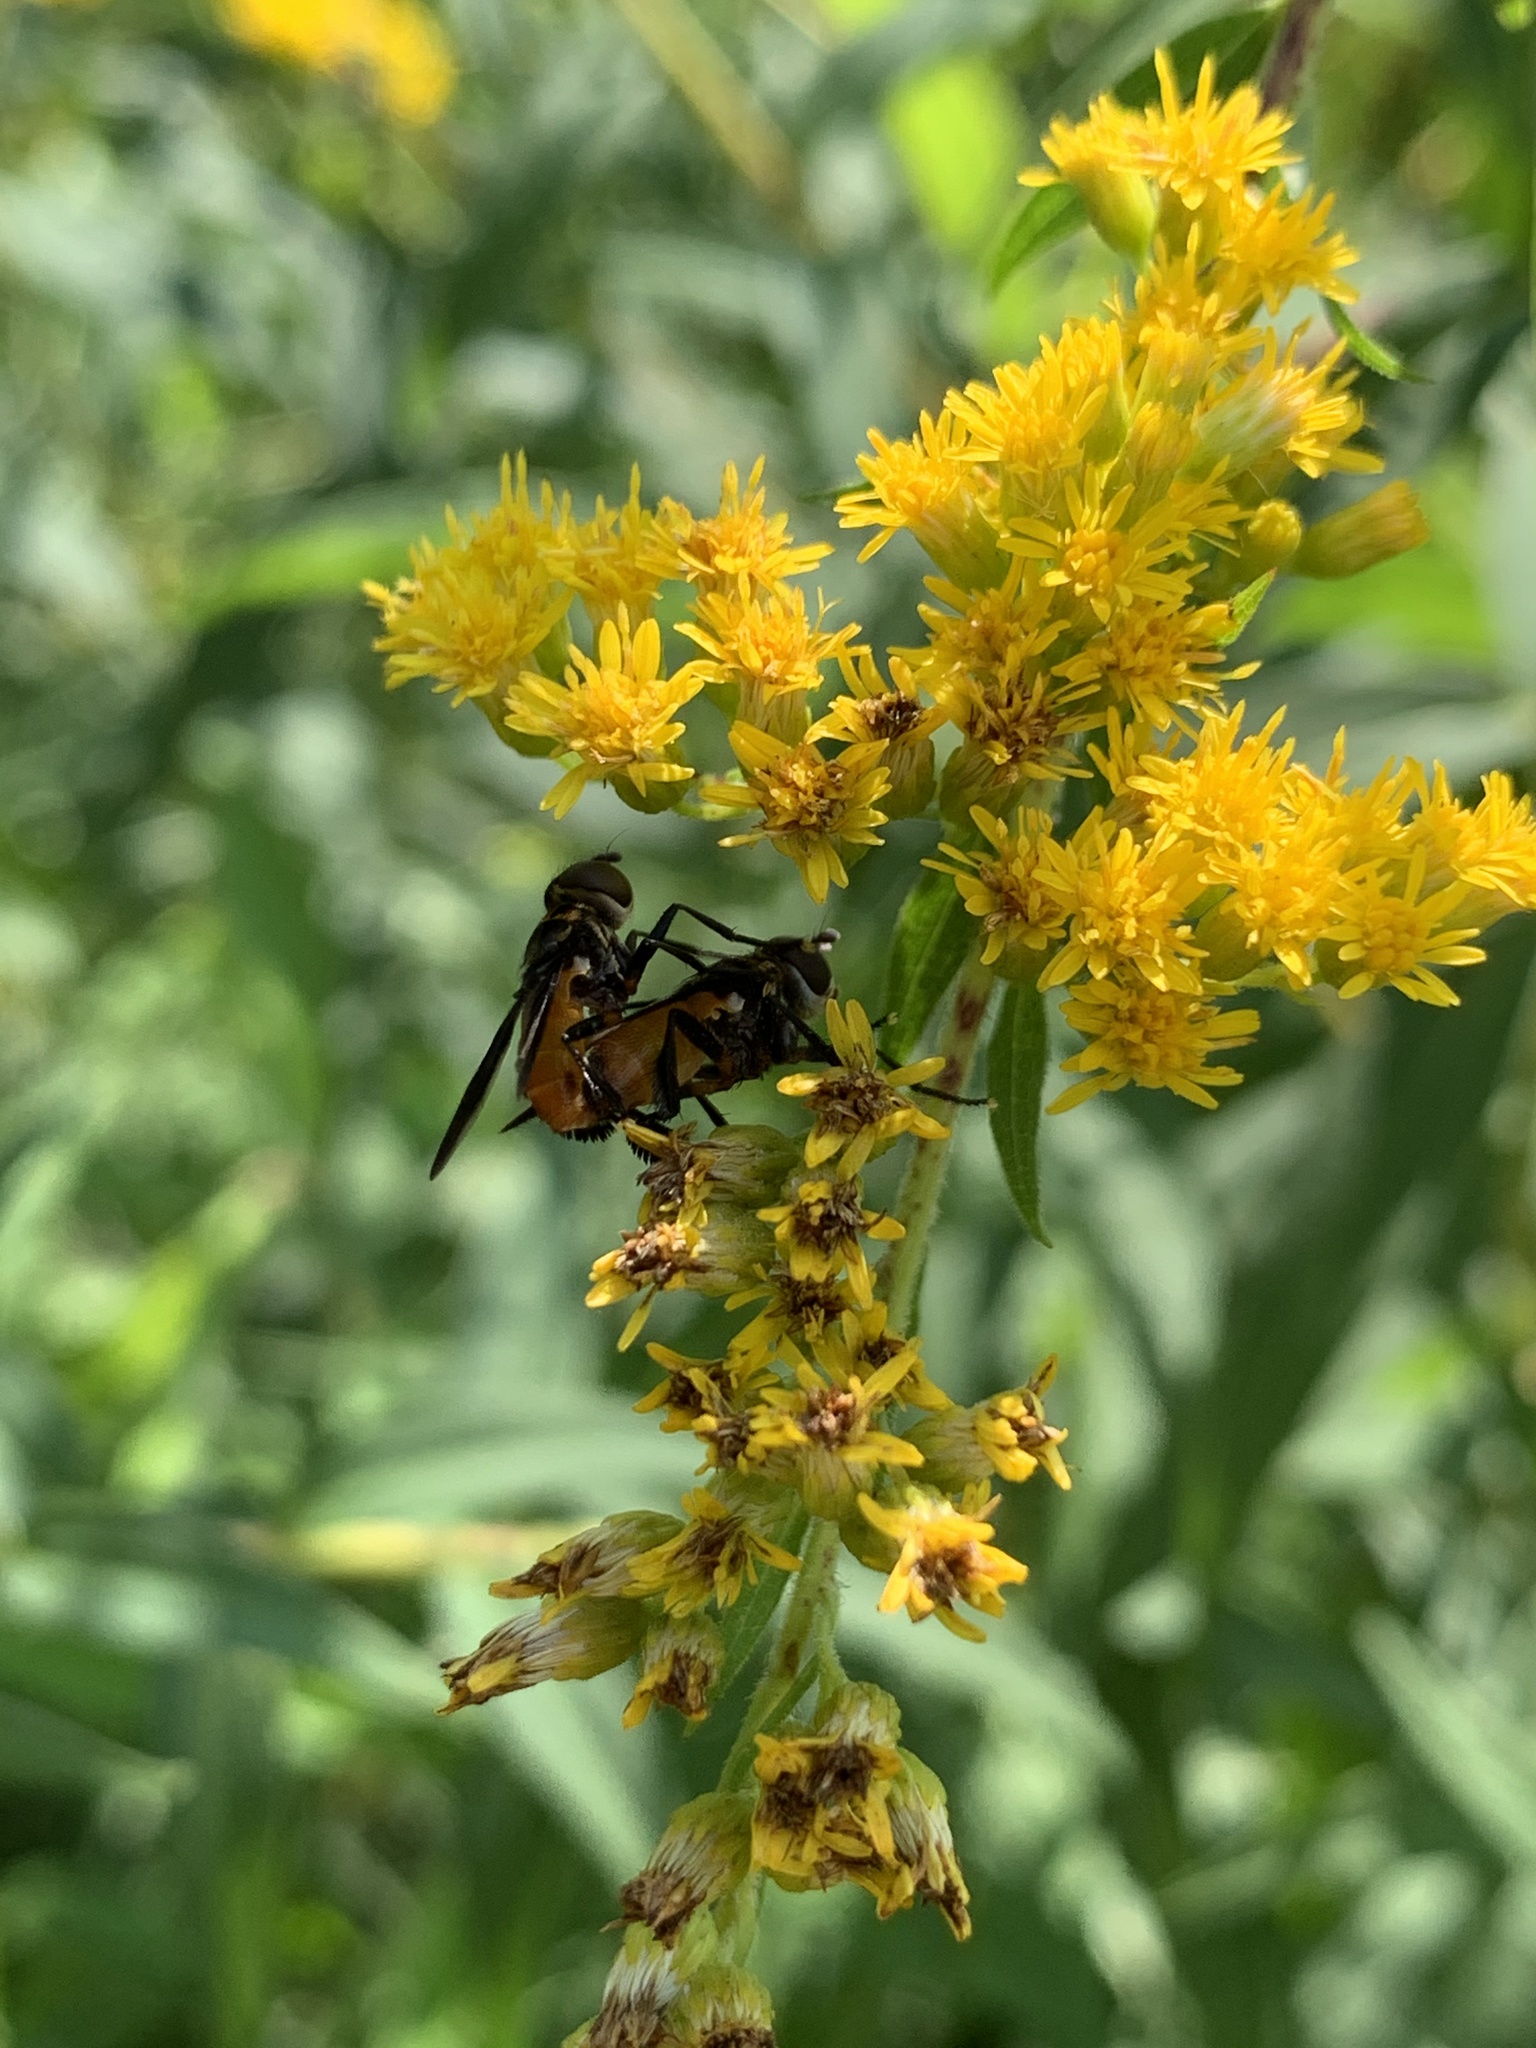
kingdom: Animalia
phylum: Arthropoda
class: Insecta
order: Diptera
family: Tachinidae
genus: Trichopoda
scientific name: Trichopoda pennipes
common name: Tachinid fly
